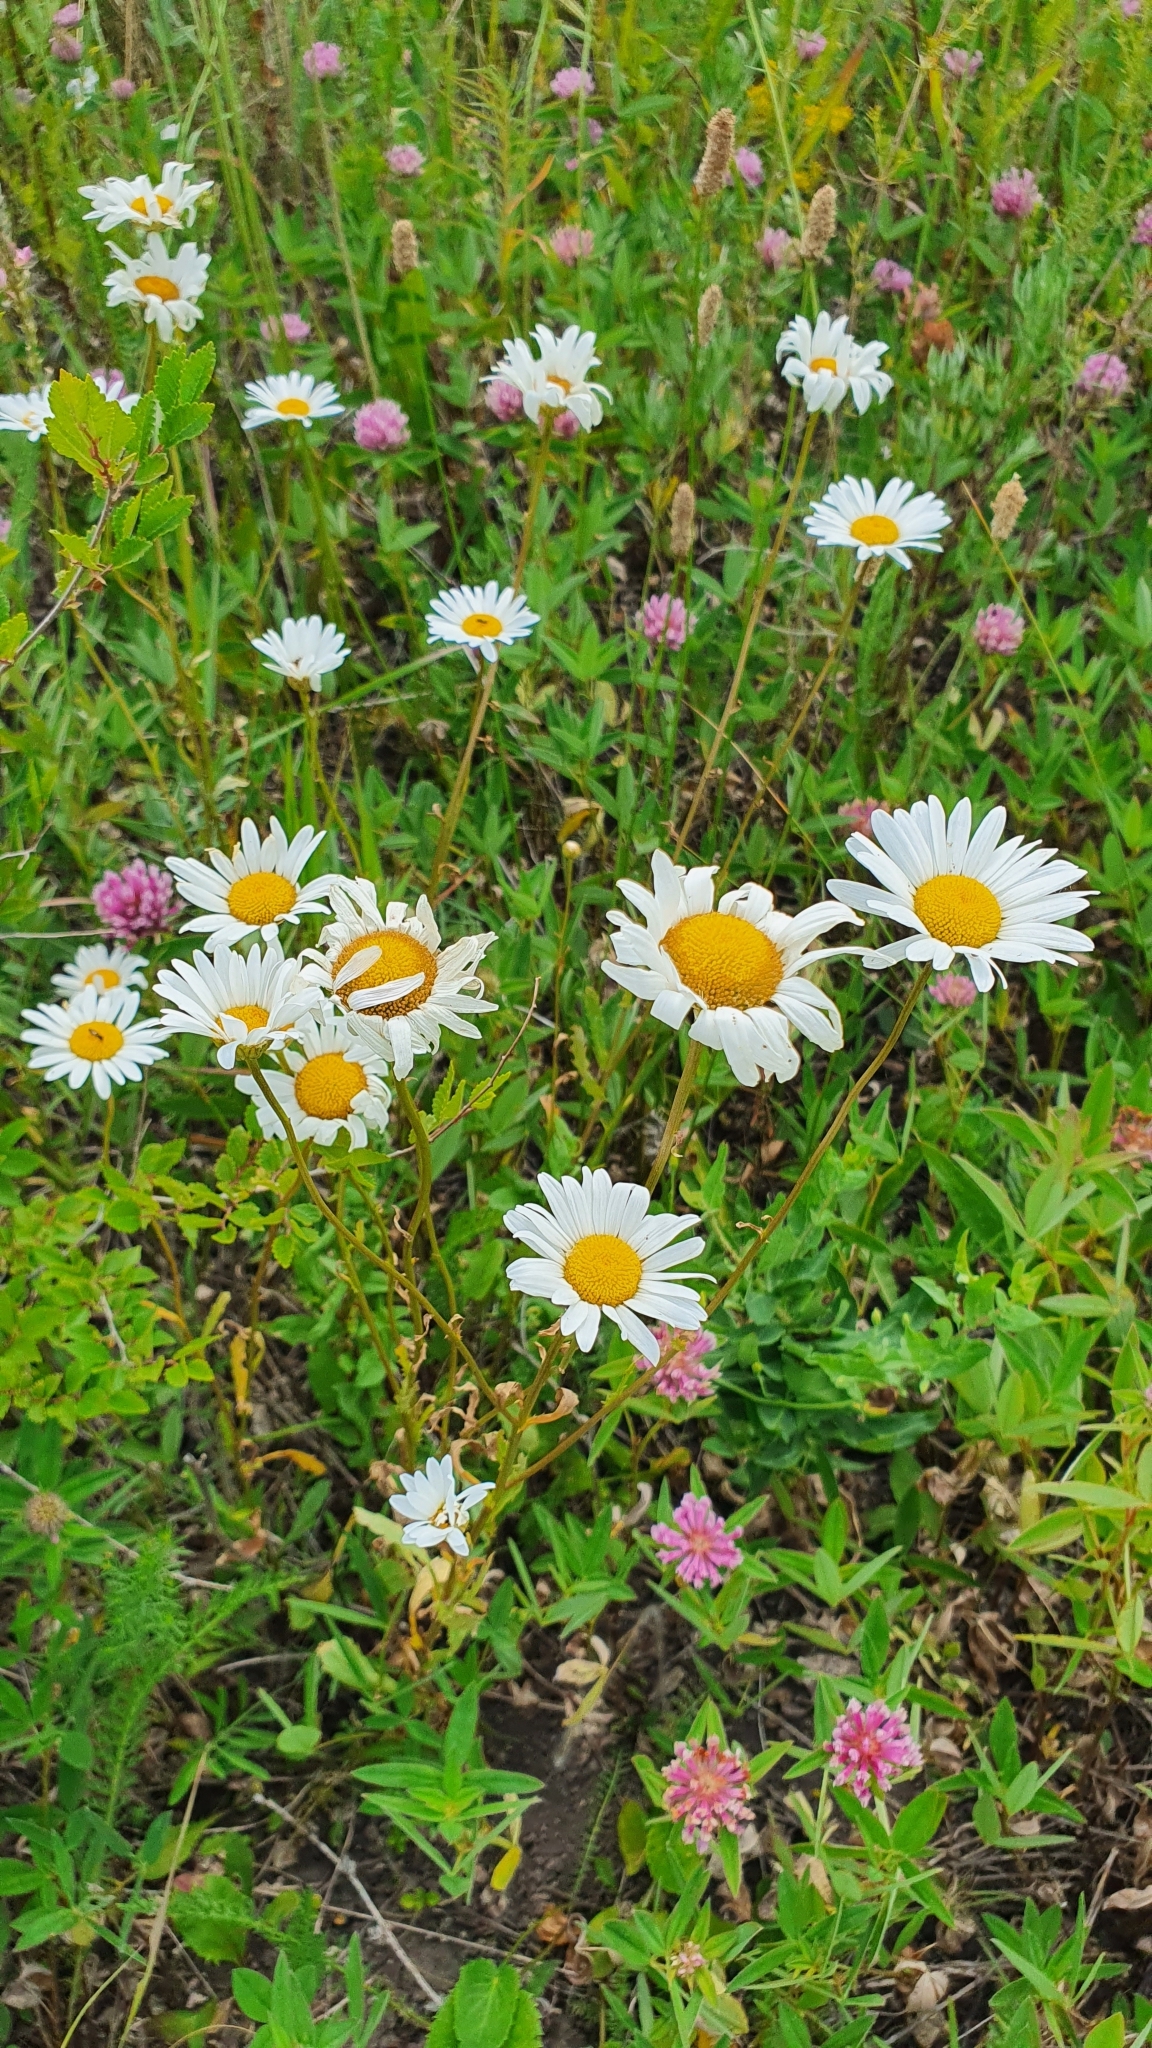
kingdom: Plantae
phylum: Tracheophyta
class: Magnoliopsida
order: Asterales
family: Asteraceae
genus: Leucanthemum
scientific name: Leucanthemum vulgare
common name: Oxeye daisy
